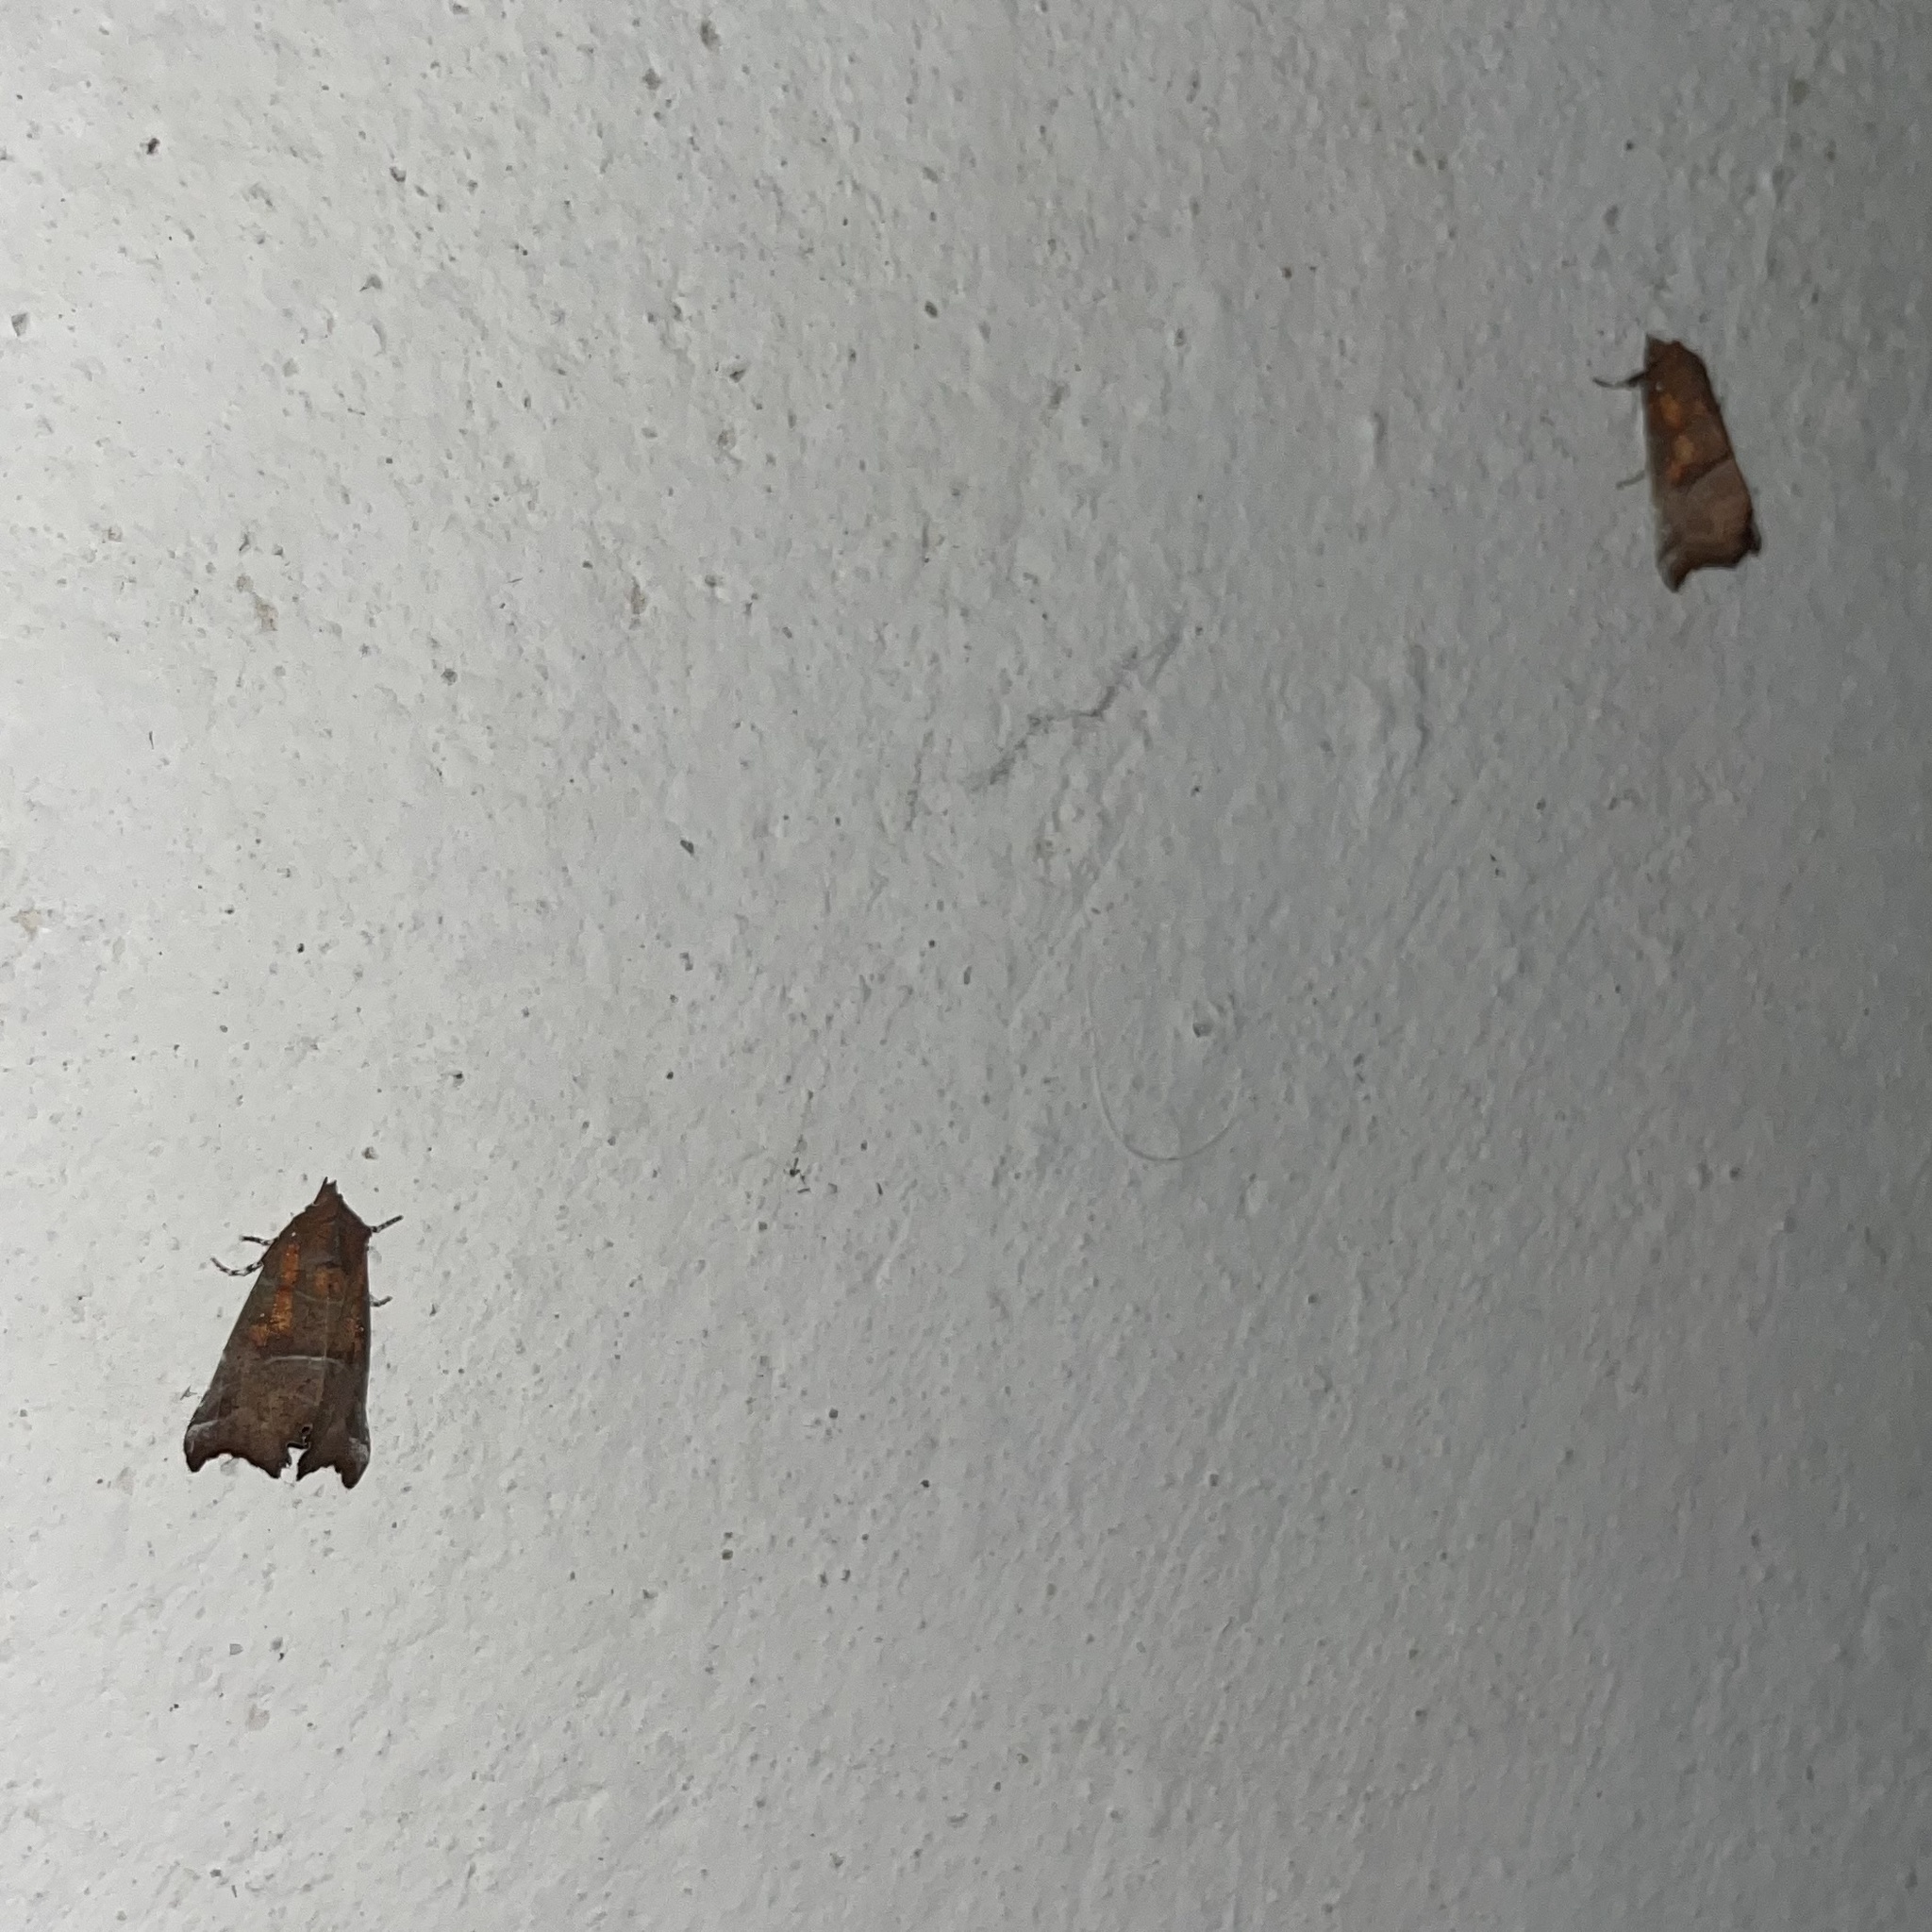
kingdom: Animalia
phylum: Arthropoda
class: Insecta
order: Lepidoptera
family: Erebidae
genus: Scoliopteryx
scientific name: Scoliopteryx libatrix
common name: Herald
